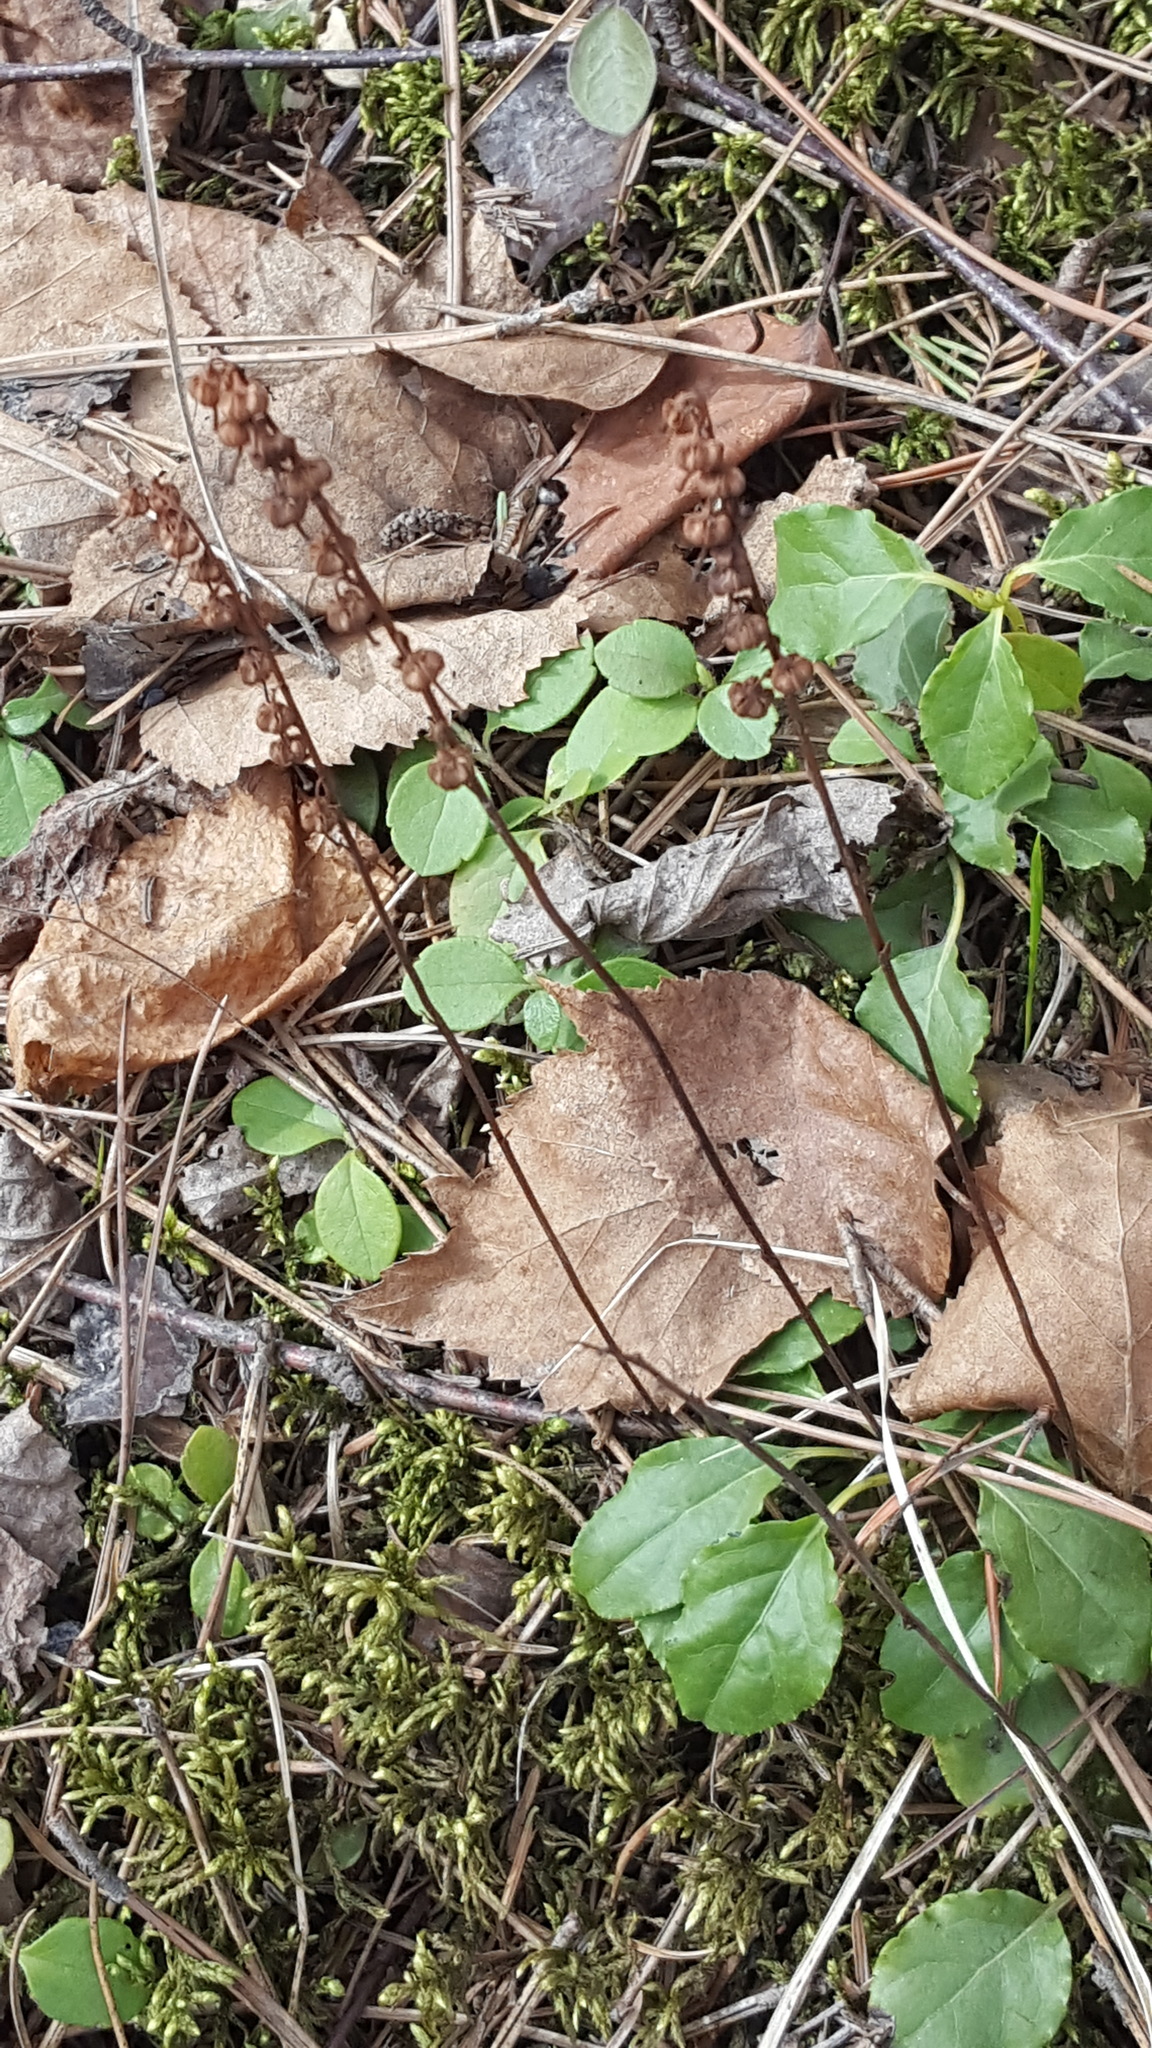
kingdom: Plantae
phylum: Tracheophyta
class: Magnoliopsida
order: Ericales
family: Ericaceae
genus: Orthilia
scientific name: Orthilia secunda
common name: One-sided orthilia
